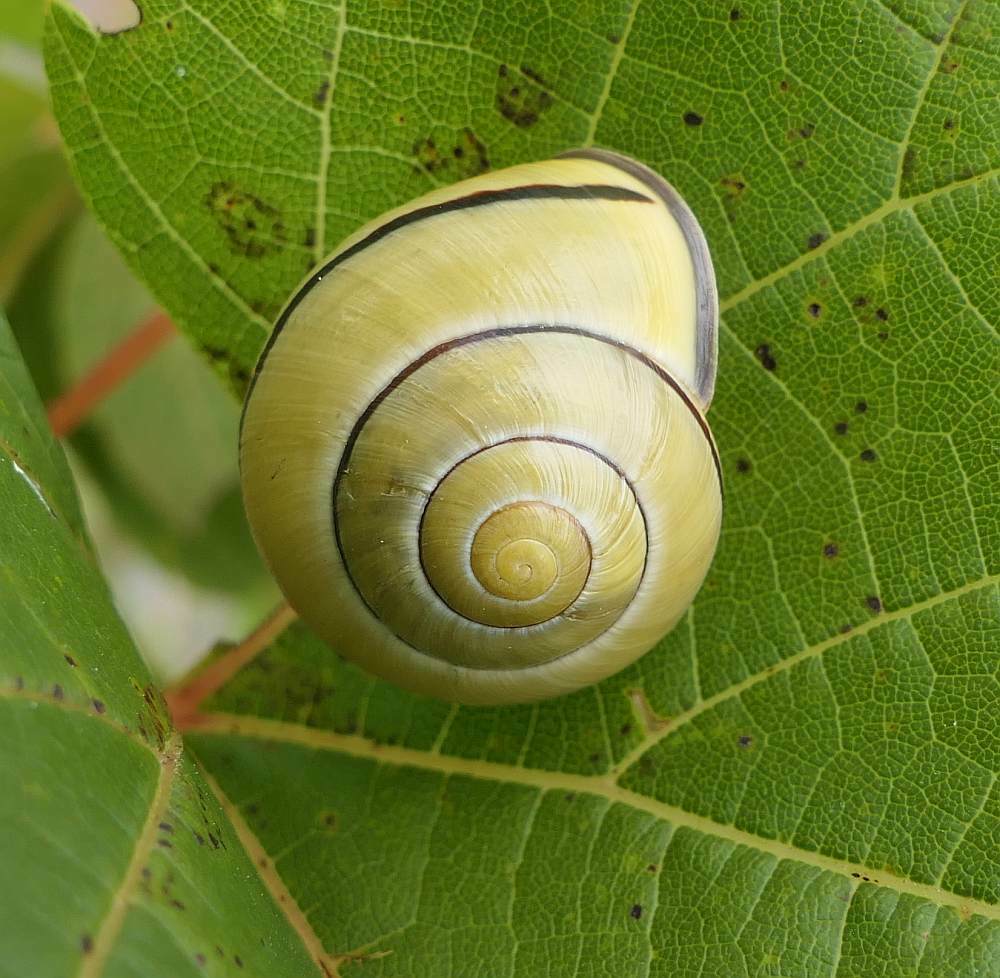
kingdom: Animalia
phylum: Mollusca
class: Gastropoda
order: Stylommatophora
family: Helicidae
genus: Cepaea
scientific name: Cepaea nemoralis
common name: Grovesnail
